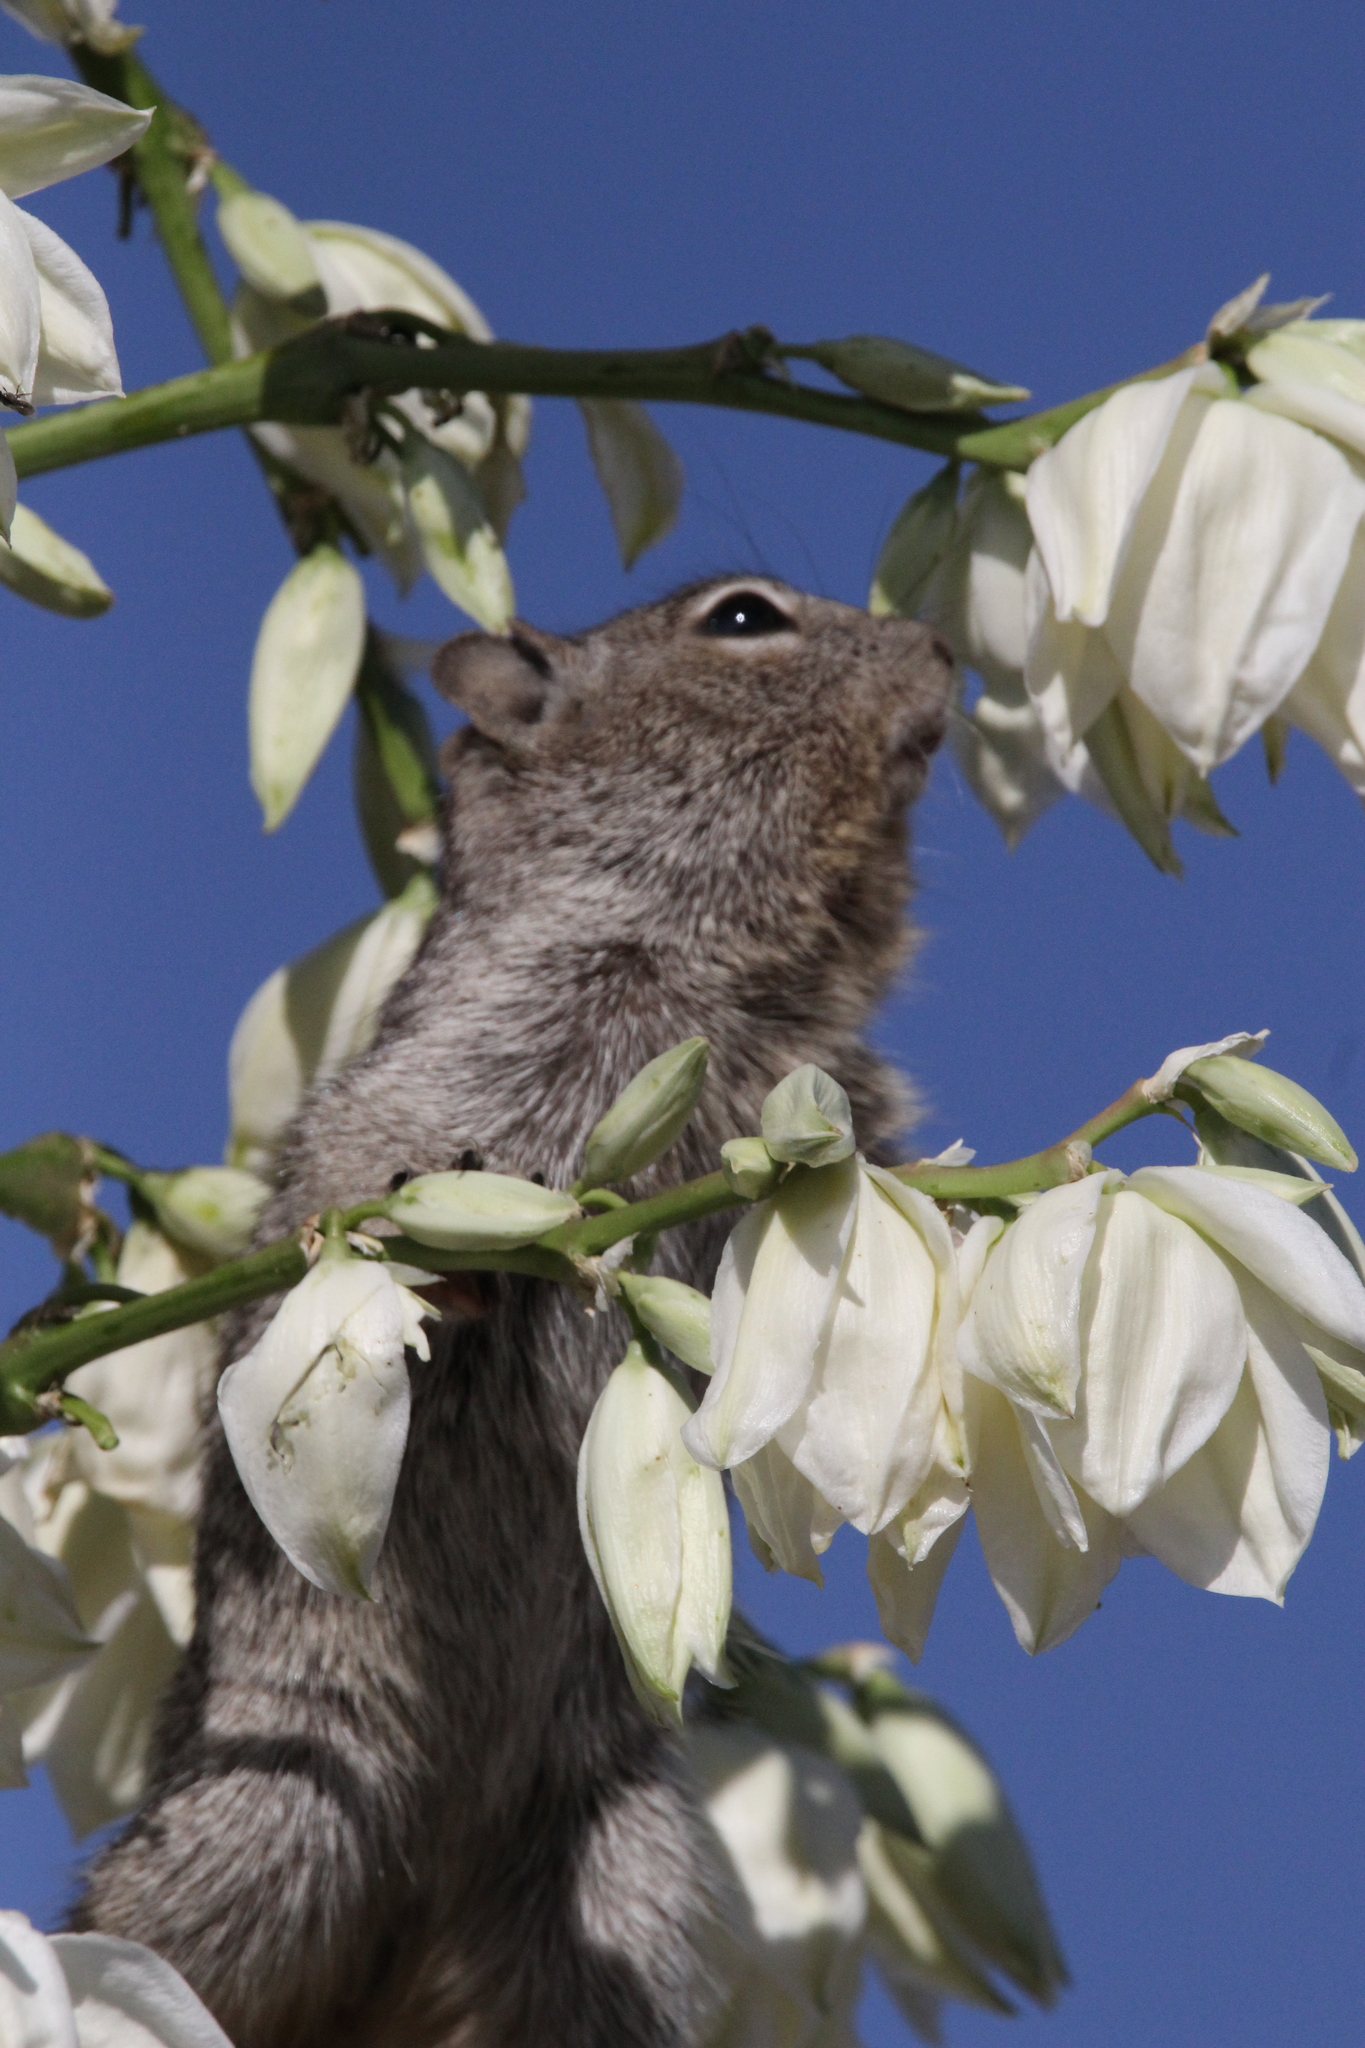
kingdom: Animalia
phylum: Chordata
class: Mammalia
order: Rodentia
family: Sciuridae
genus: Otospermophilus
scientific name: Otospermophilus variegatus
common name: Rock squirrel
